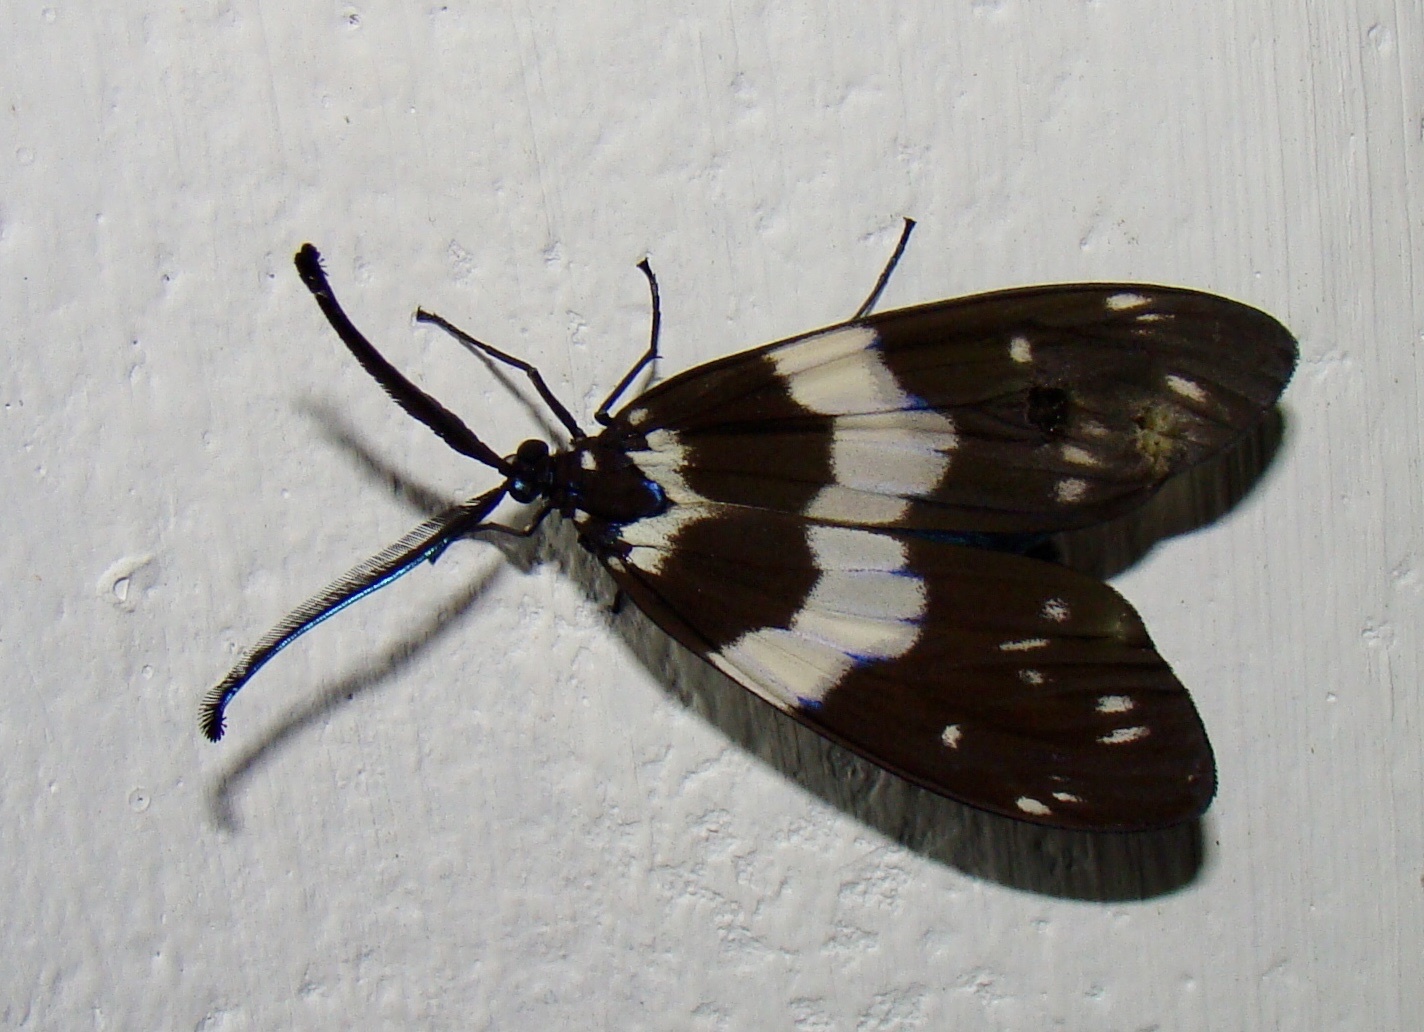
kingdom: Animalia
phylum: Arthropoda
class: Insecta
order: Lepidoptera
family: Zygaenidae
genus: Eterusia
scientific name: Eterusia aedea
